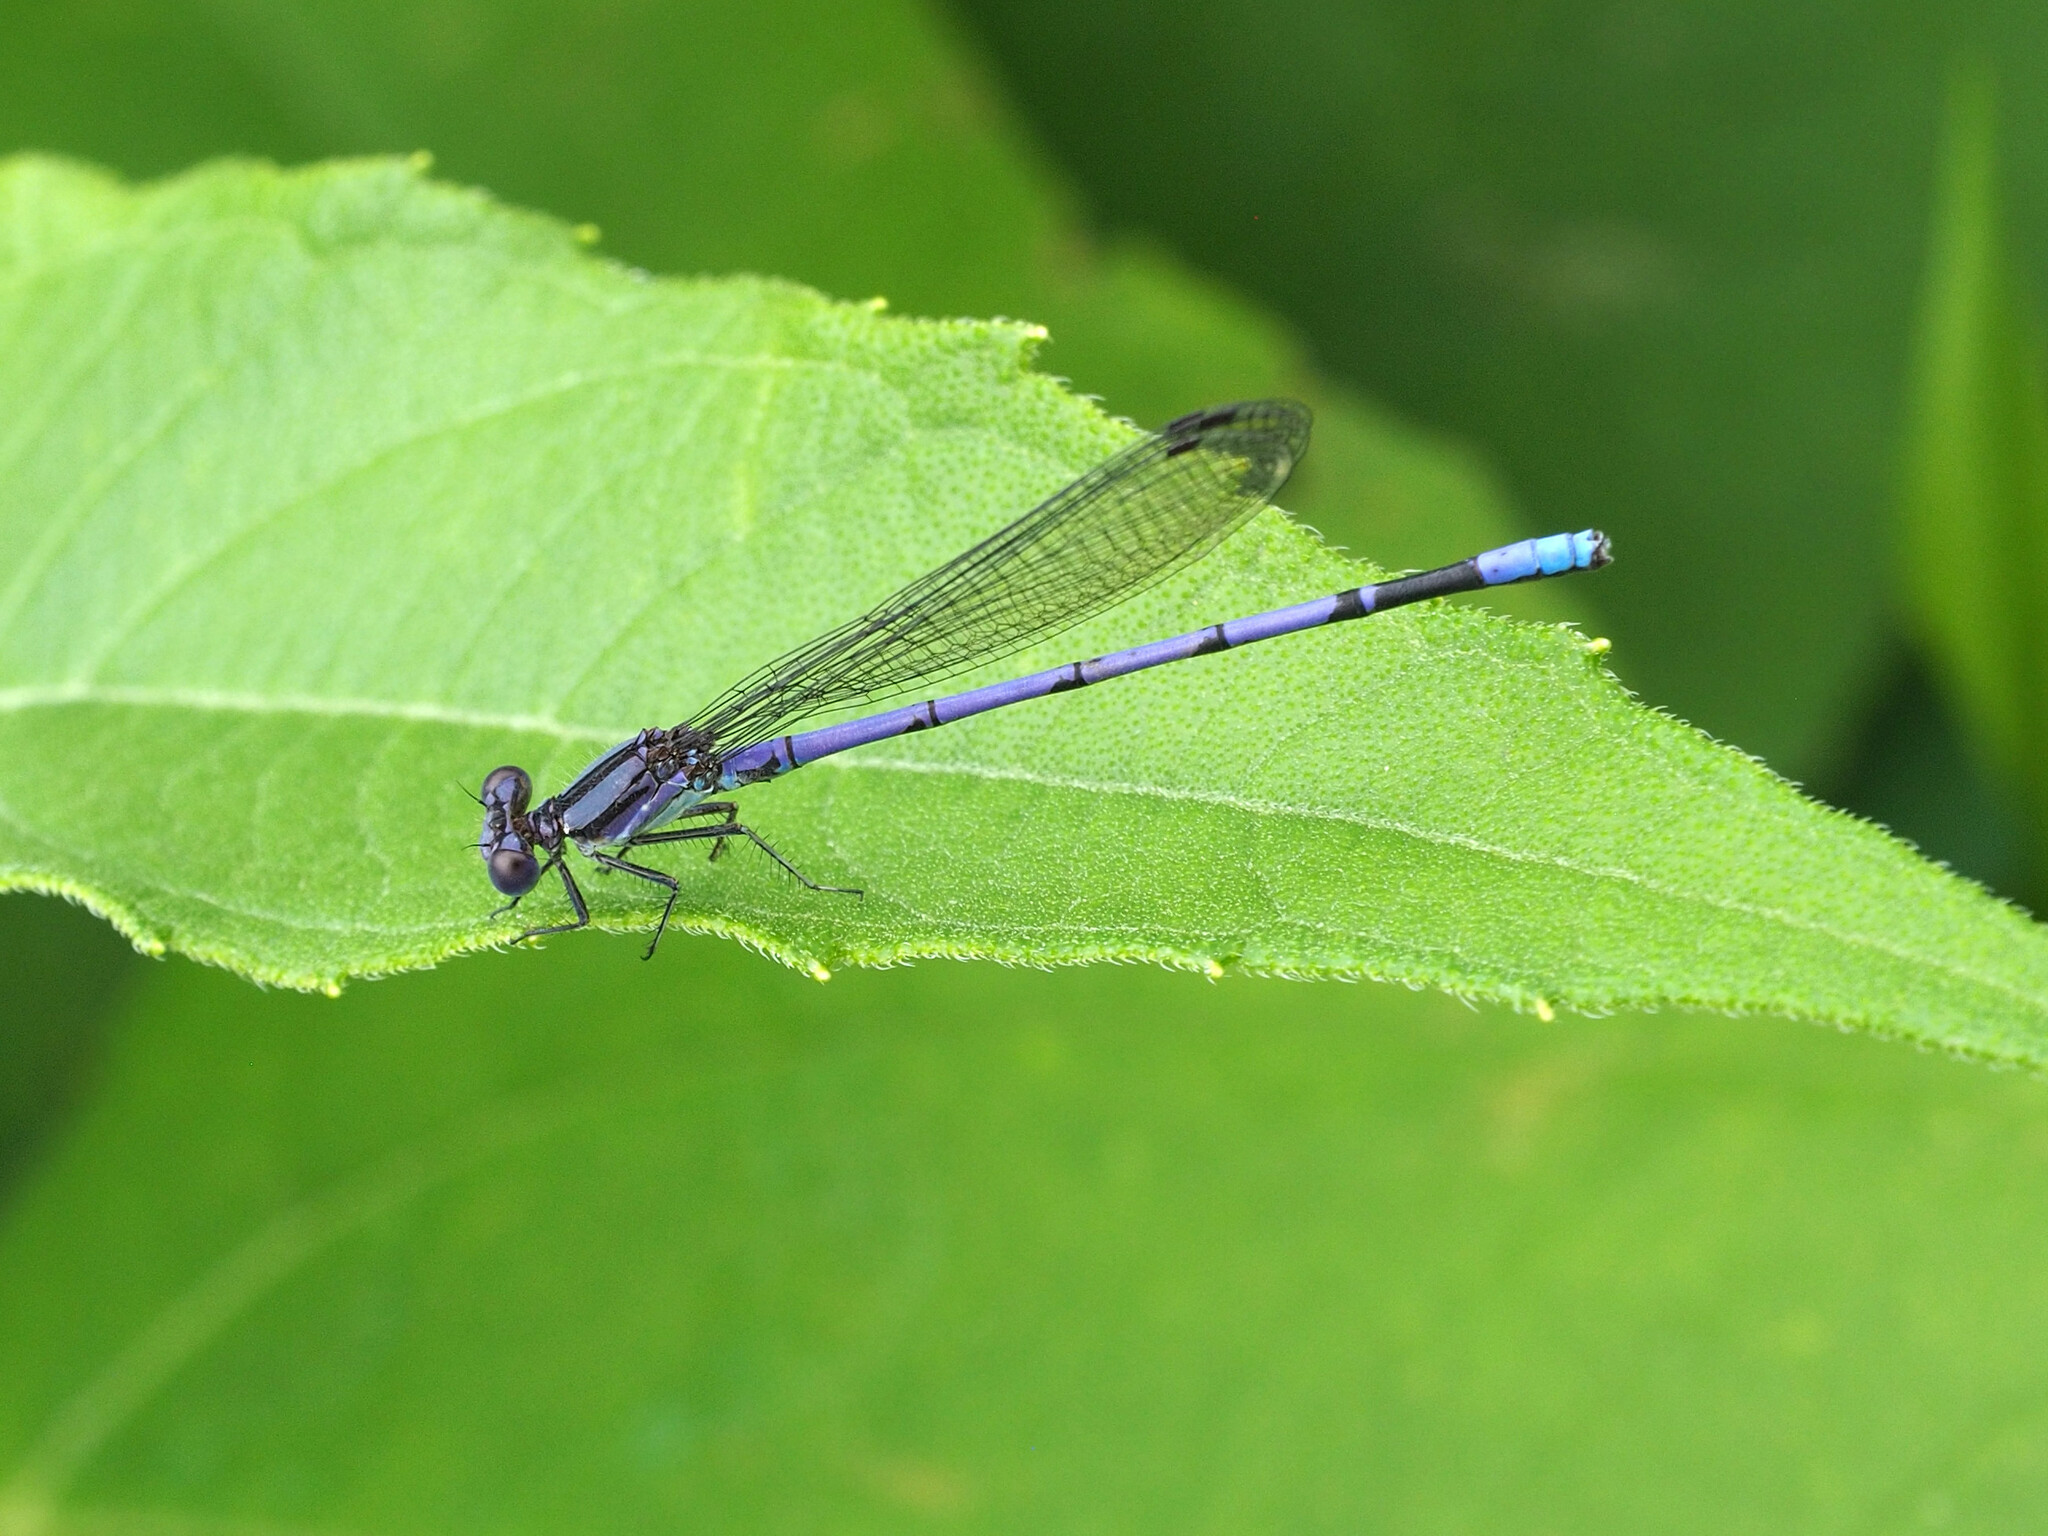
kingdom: Animalia
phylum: Arthropoda
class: Insecta
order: Odonata
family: Coenagrionidae
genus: Argia
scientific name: Argia fumipennis
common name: Variable dancer
